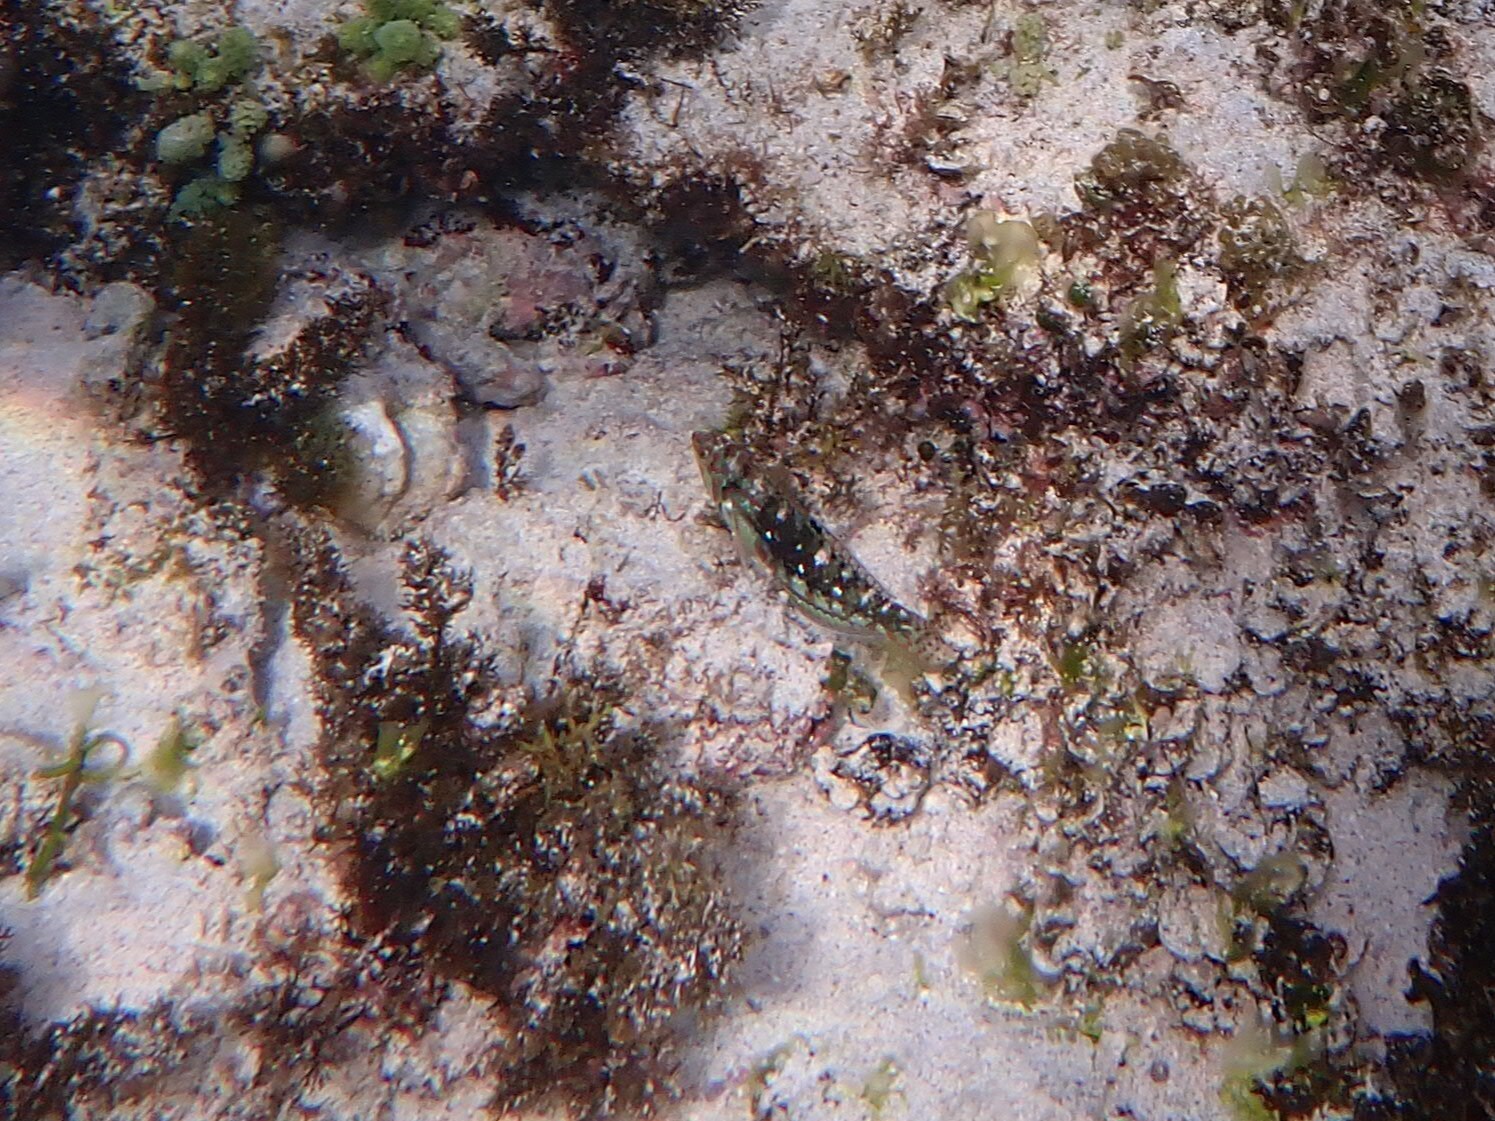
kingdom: Animalia
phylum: Chordata
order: Perciformes
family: Labridae
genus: Halichoeres
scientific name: Halichoeres margaritaceus
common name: Pink-belly wrasse
